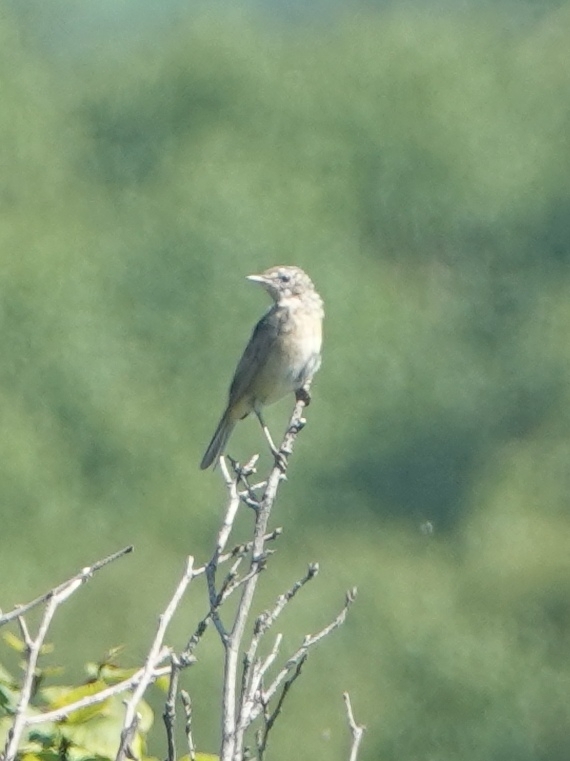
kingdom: Animalia
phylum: Chordata
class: Aves
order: Passeriformes
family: Muscicapidae
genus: Luscinia
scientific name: Luscinia calliope
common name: Siberian rubythroat
